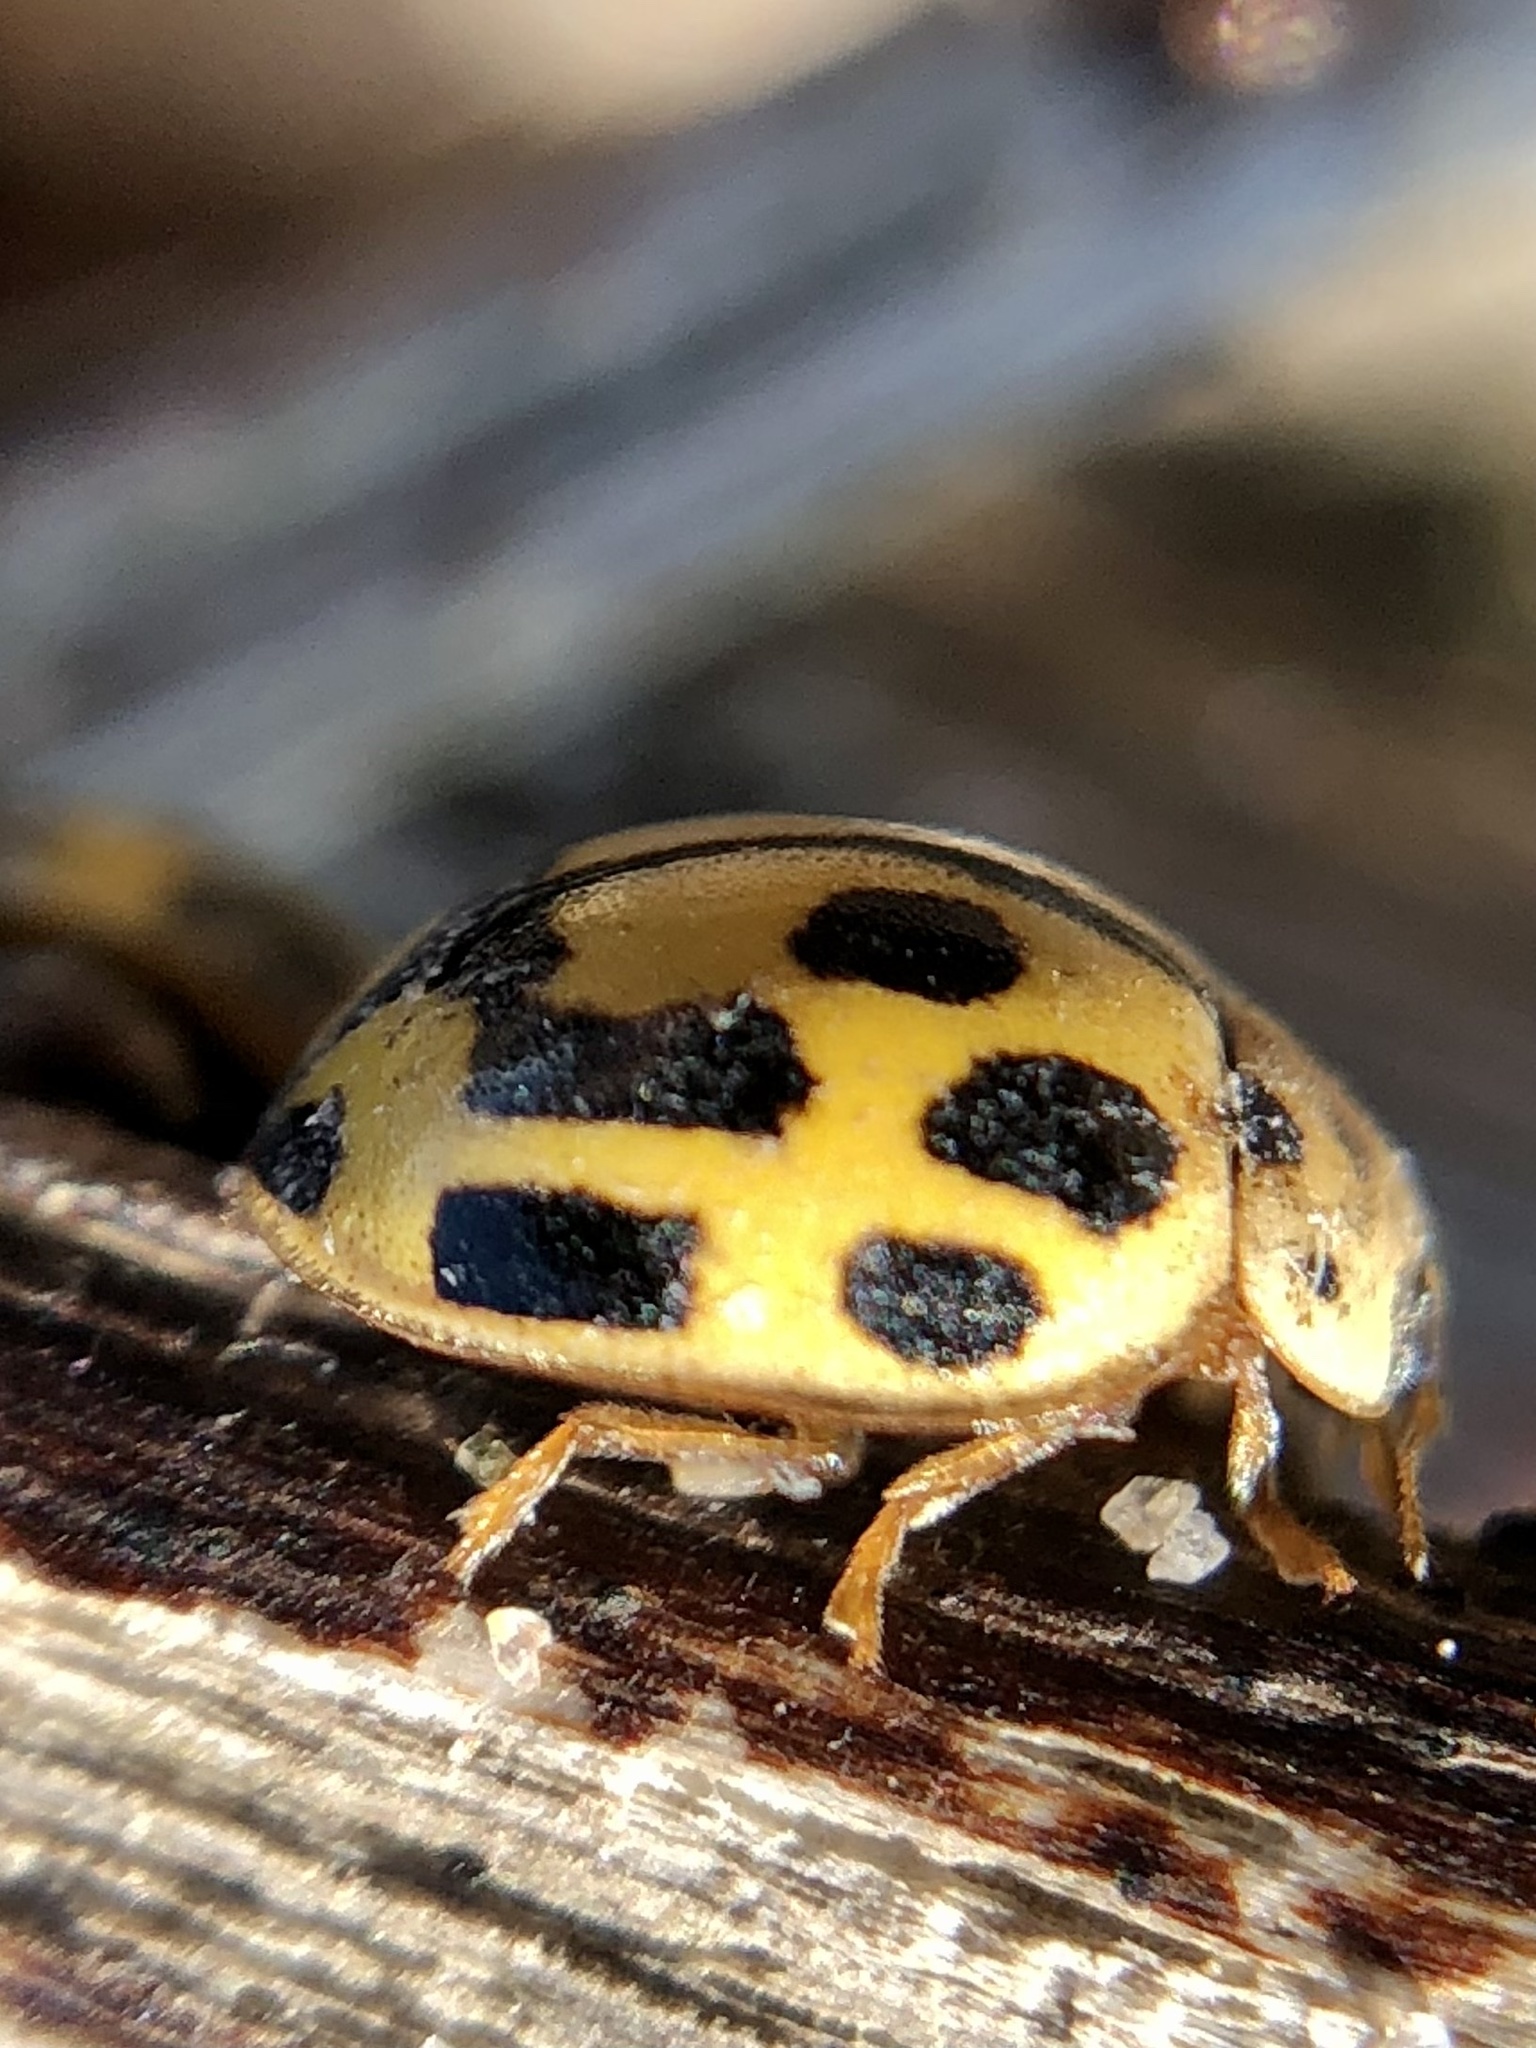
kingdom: Animalia
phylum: Arthropoda
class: Insecta
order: Coleoptera
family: Coccinellidae
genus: Propylaea
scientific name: Propylaea quatuordecimpunctata
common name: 14-spotted ladybird beetle
